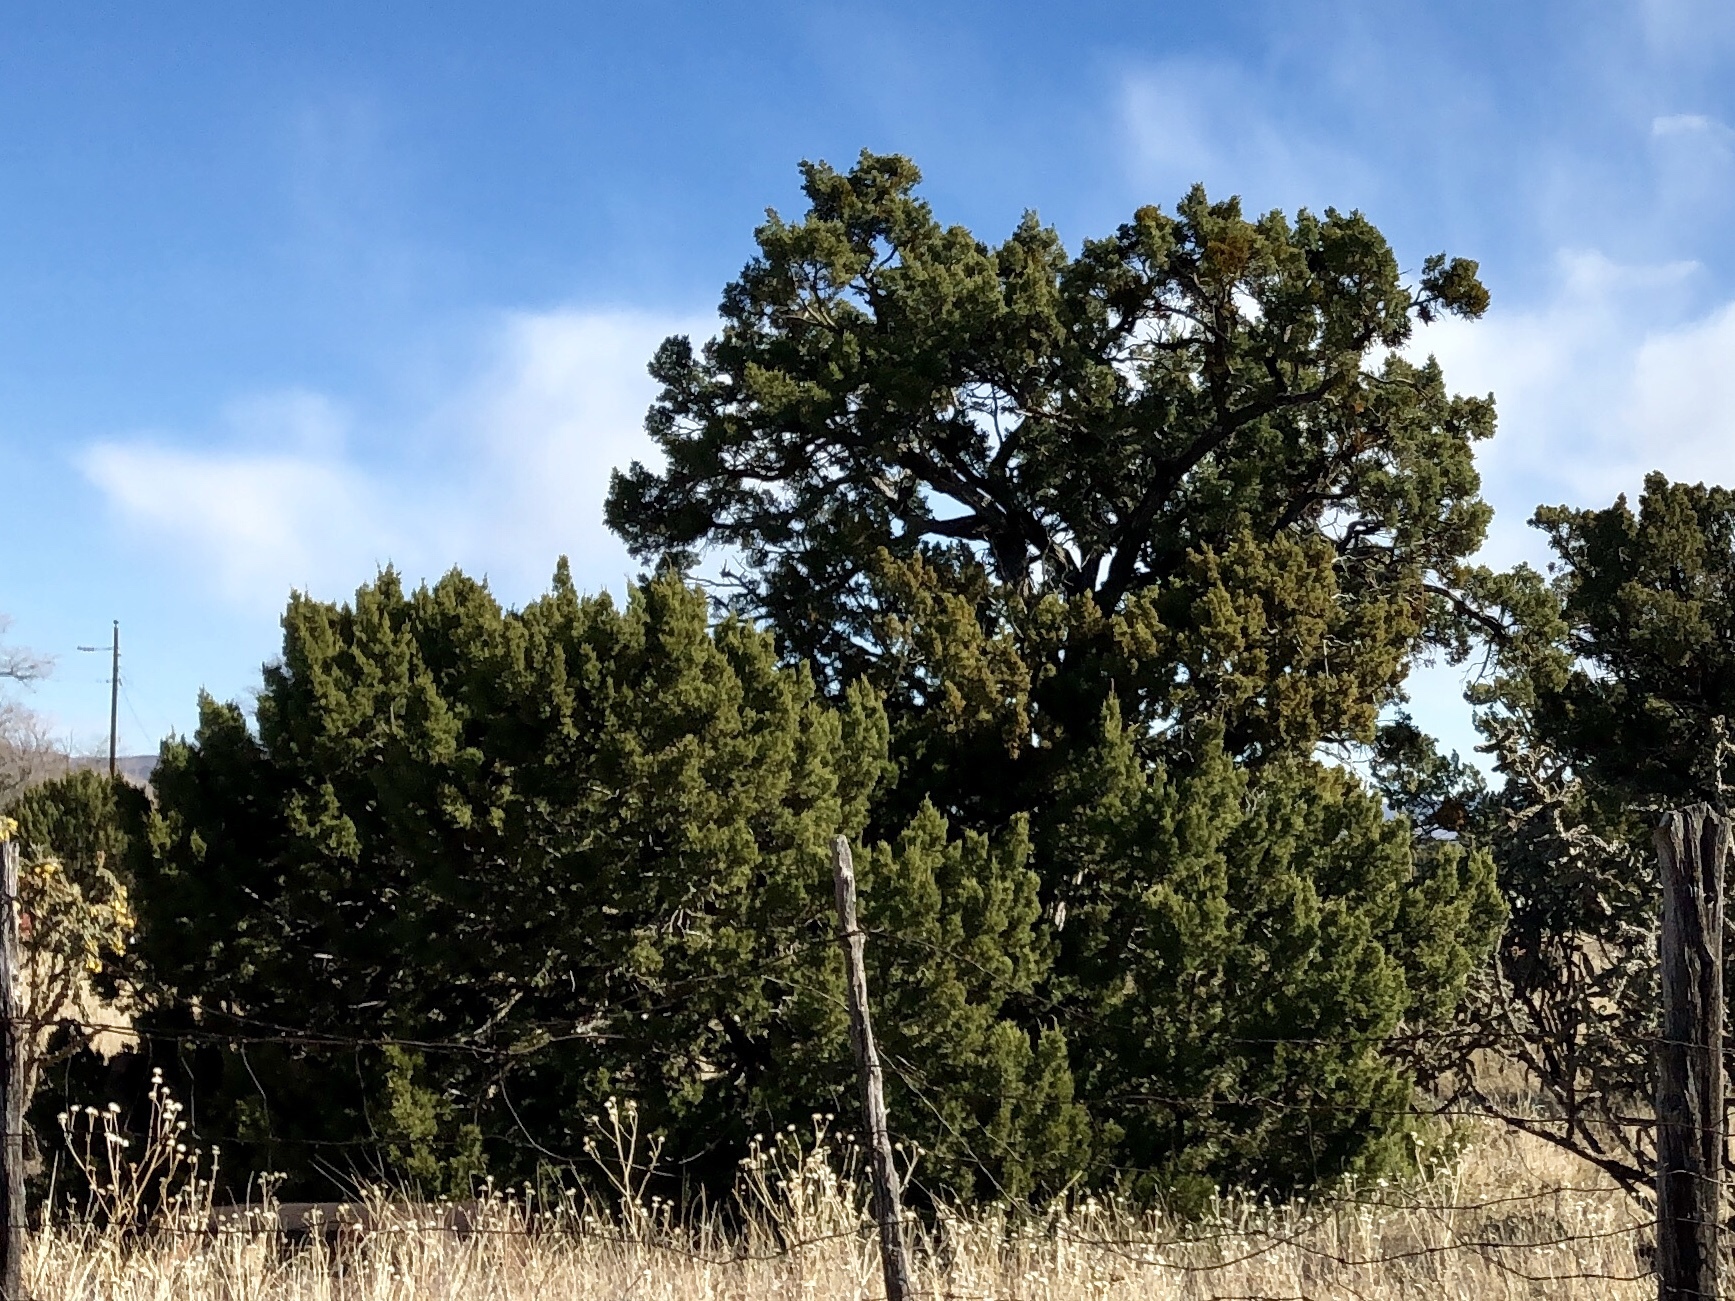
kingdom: Plantae
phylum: Tracheophyta
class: Pinopsida
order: Pinales
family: Cupressaceae
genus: Juniperus
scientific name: Juniperus monosperma
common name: One-seed juniper
